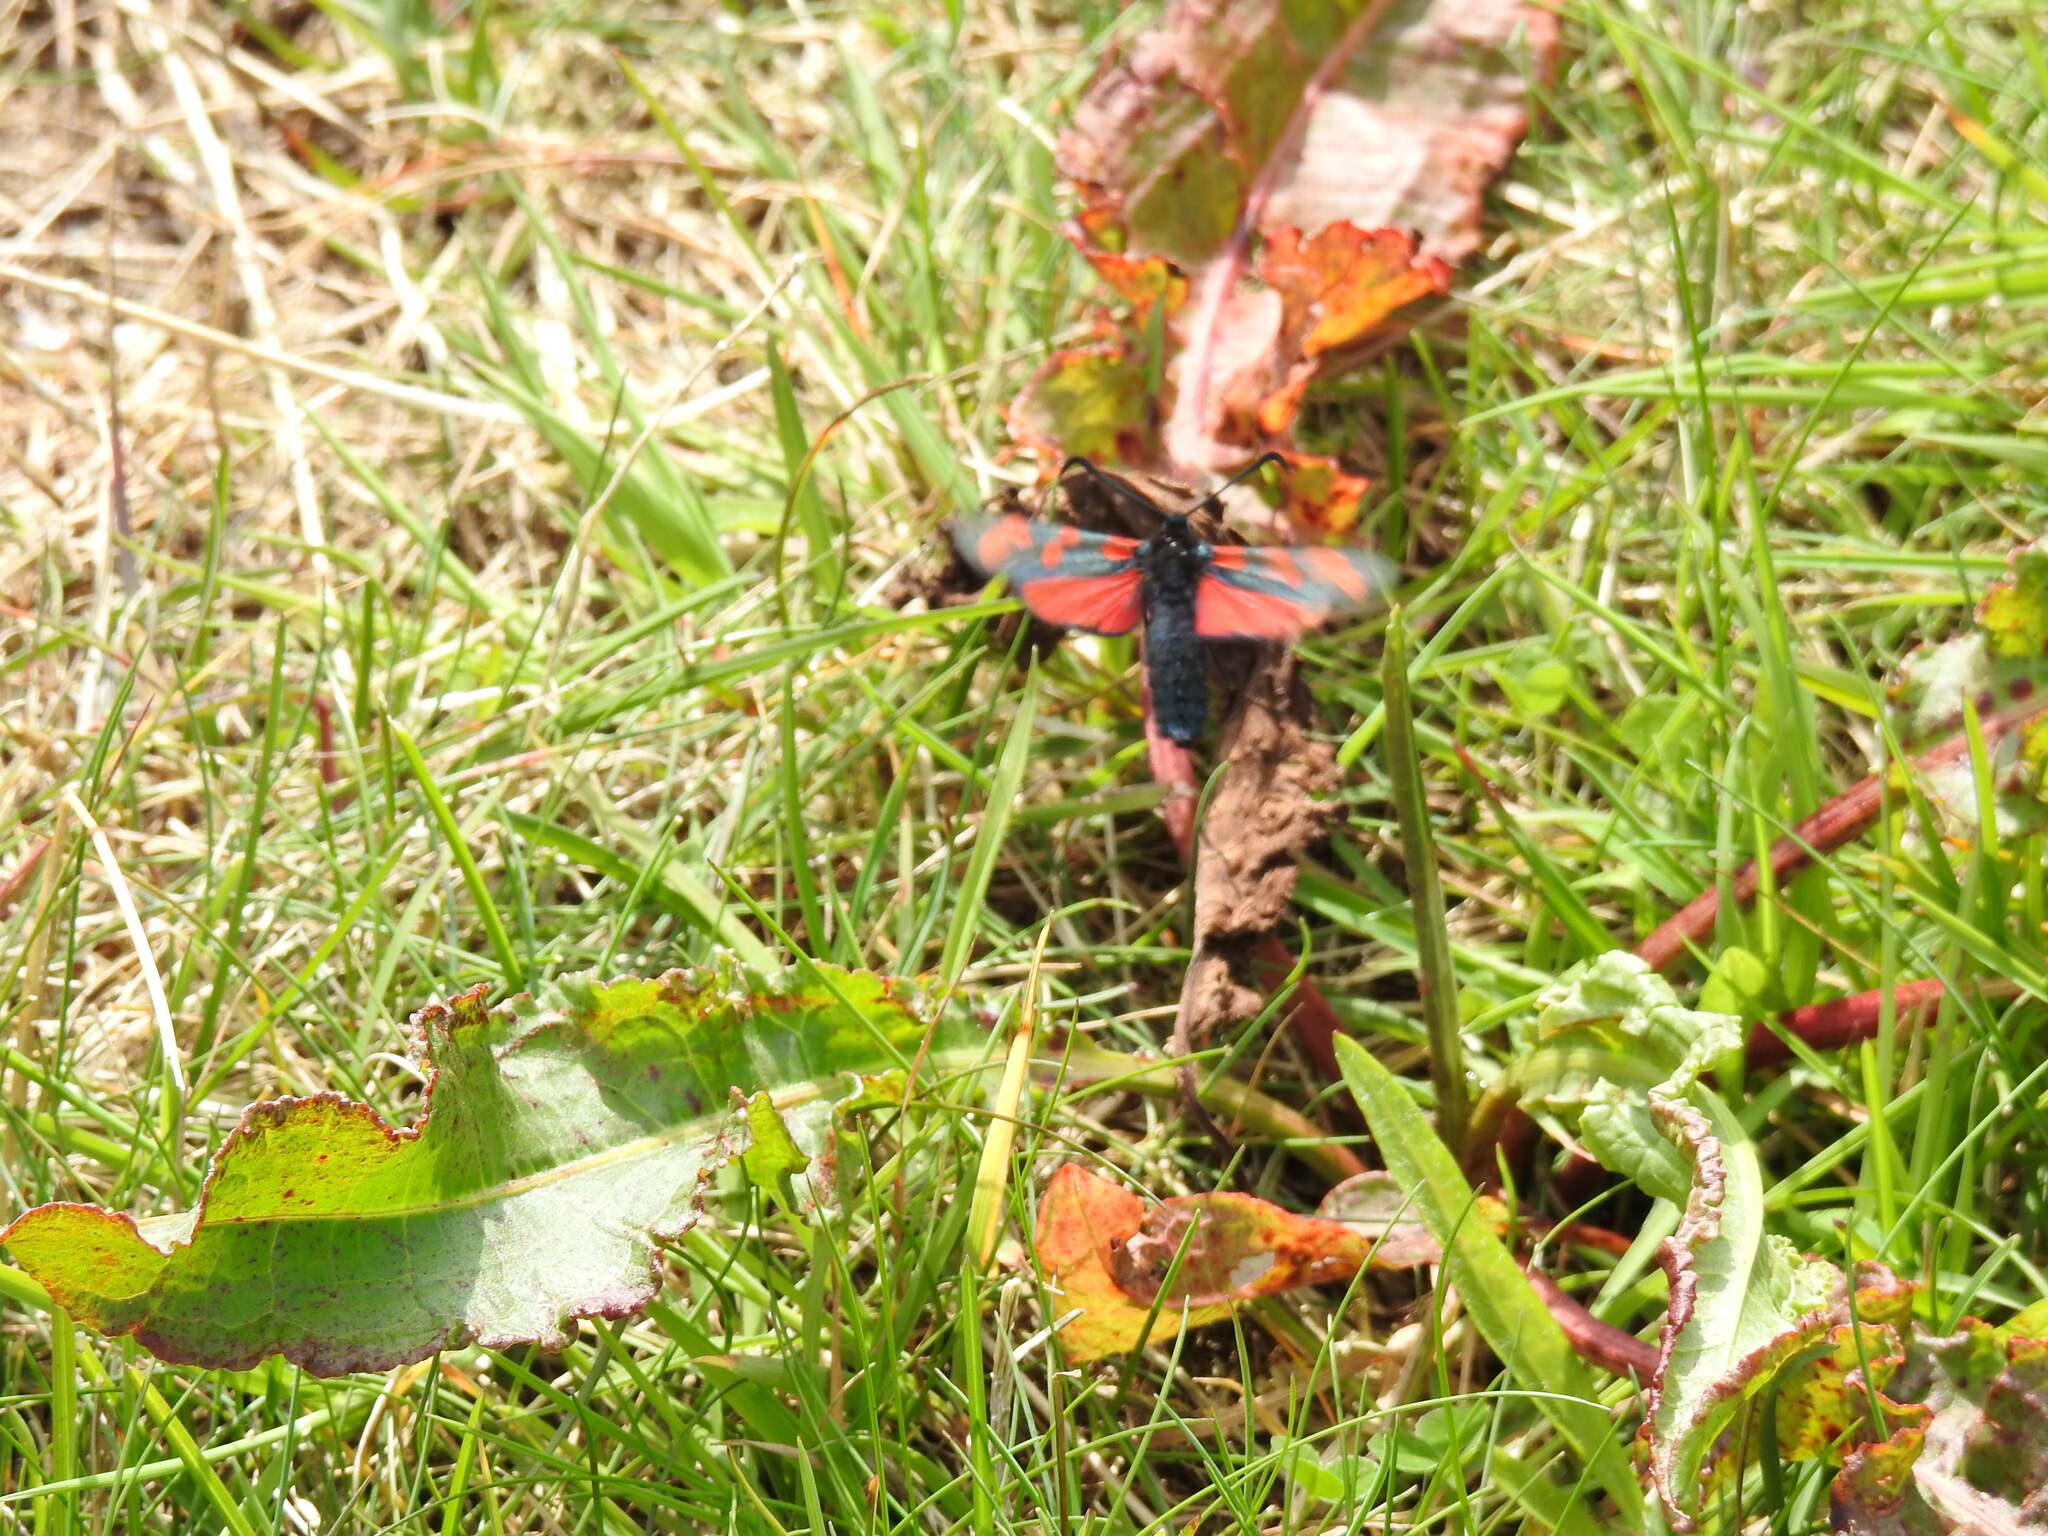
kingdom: Animalia
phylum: Arthropoda
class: Insecta
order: Lepidoptera
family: Zygaenidae
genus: Zygaena
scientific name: Zygaena filipendulae
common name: Six-spot burnet
